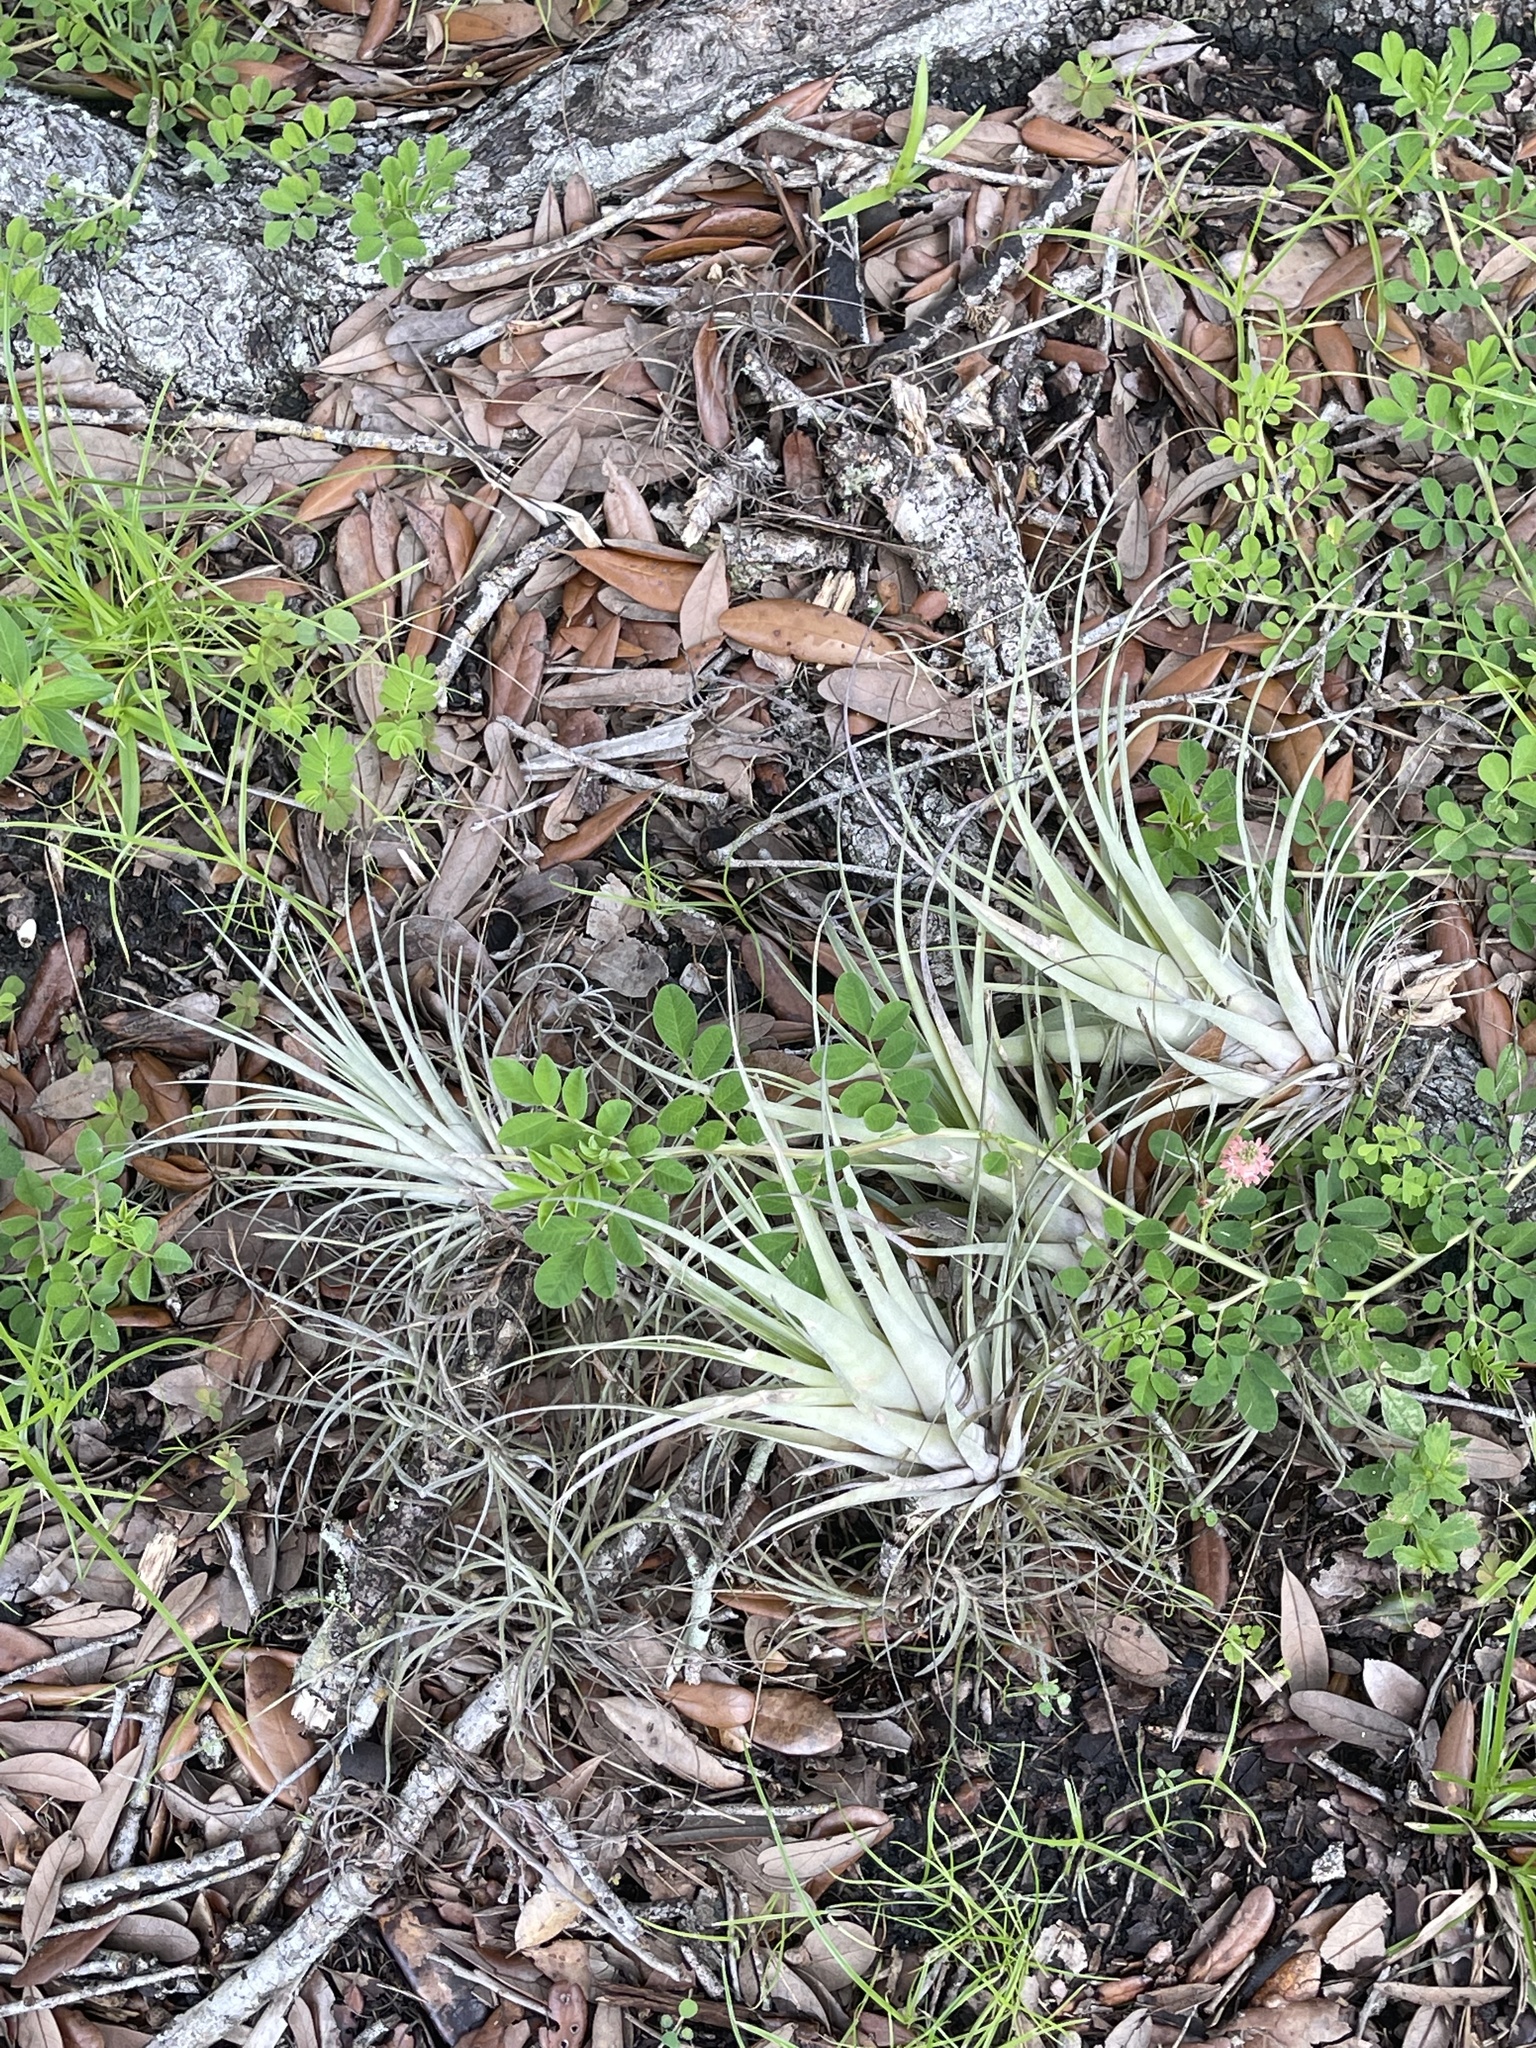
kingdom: Plantae
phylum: Tracheophyta
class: Liliopsida
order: Poales
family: Bromeliaceae
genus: Tillandsia
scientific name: Tillandsia utriculata
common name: Wild pine
